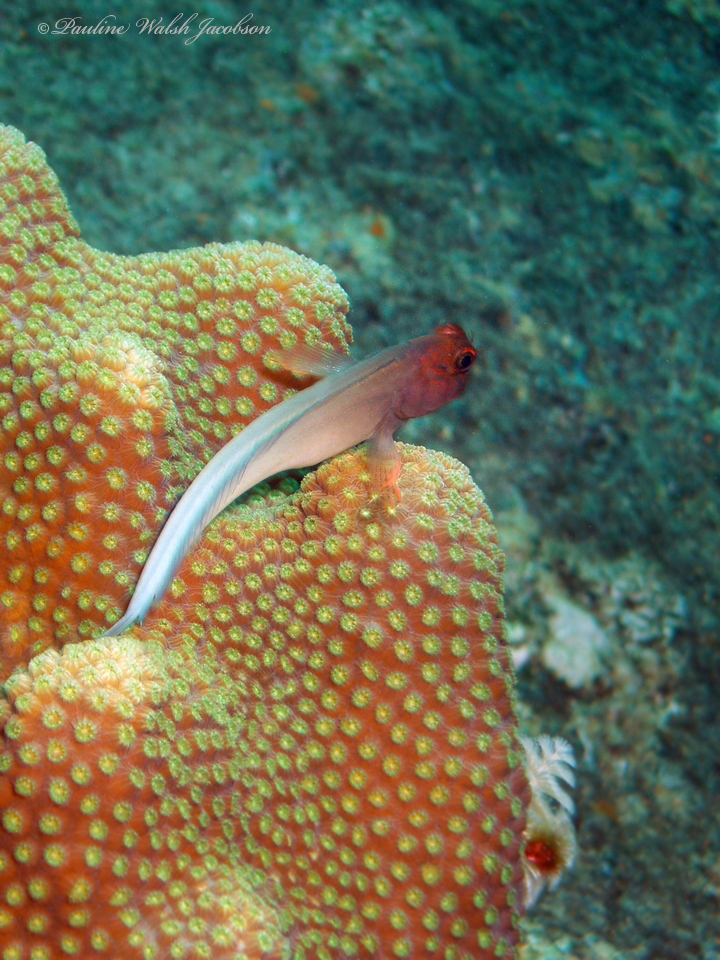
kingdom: Animalia
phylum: Chordata
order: Perciformes
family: Blenniidae
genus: Ophioblennius
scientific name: Ophioblennius macclurei
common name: Redlip blenny
